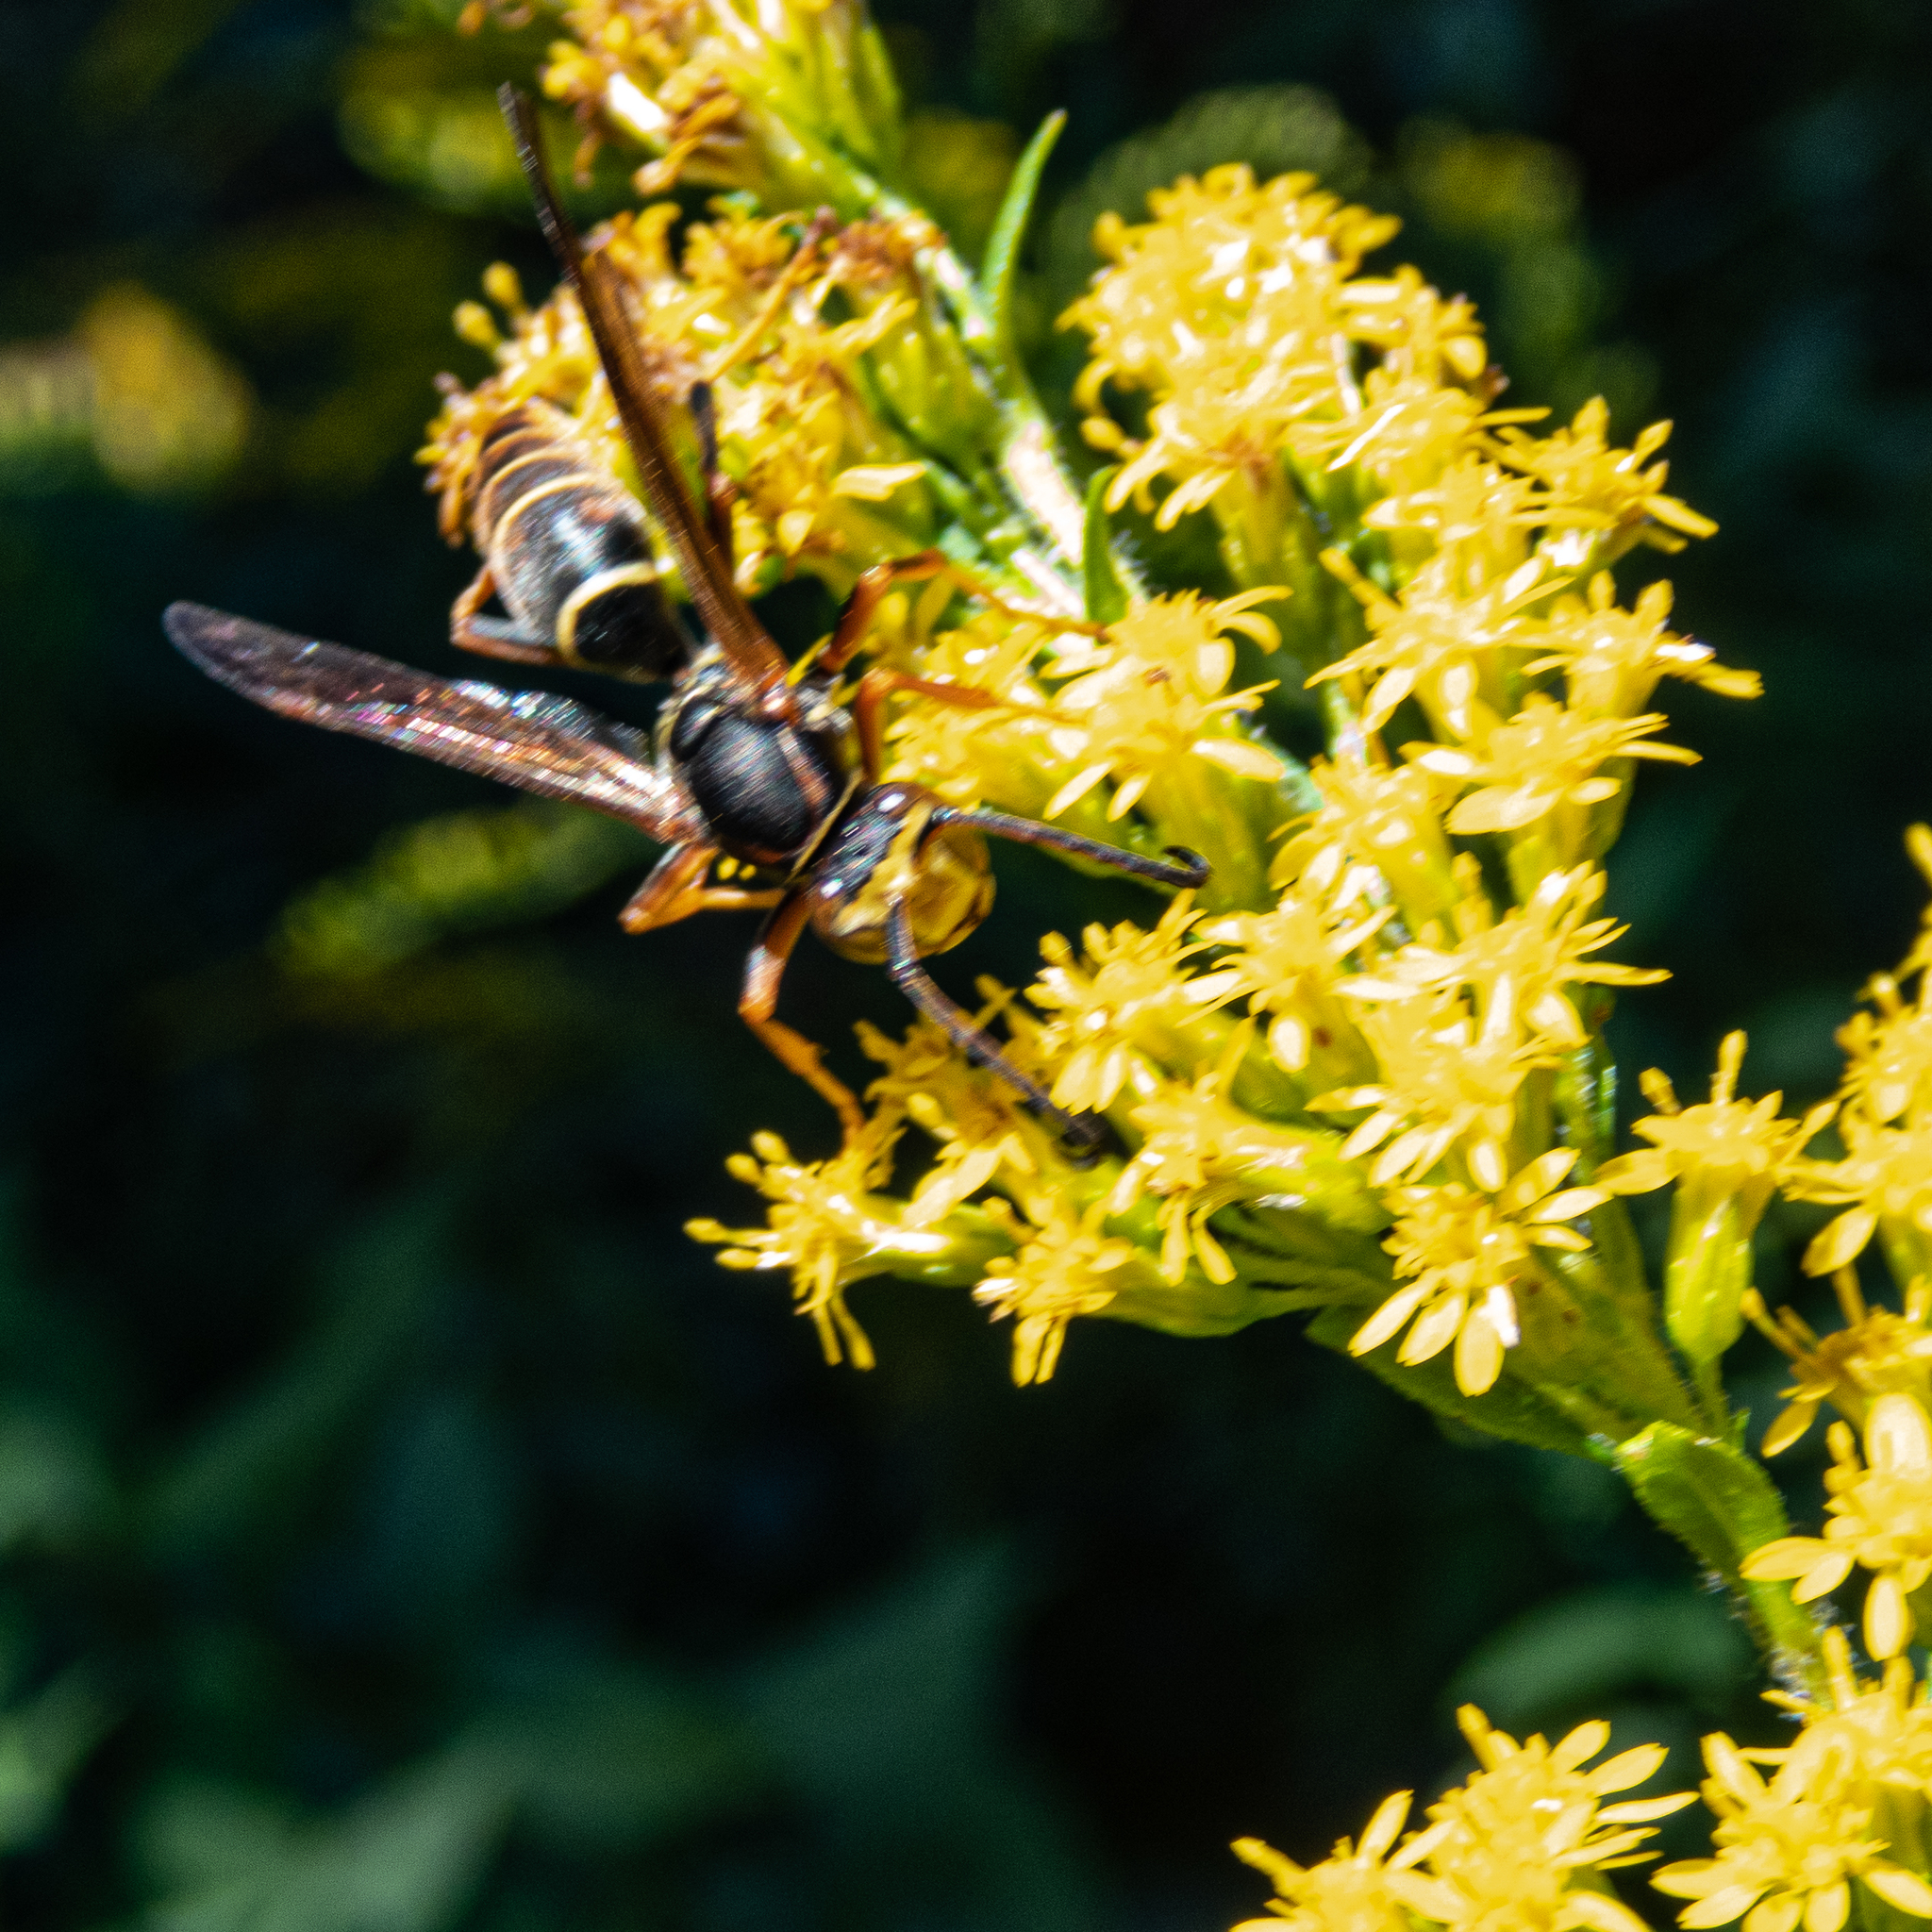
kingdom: Animalia
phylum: Arthropoda
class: Insecta
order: Hymenoptera
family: Eumenidae
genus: Polistes
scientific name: Polistes fuscatus
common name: Dark paper wasp
